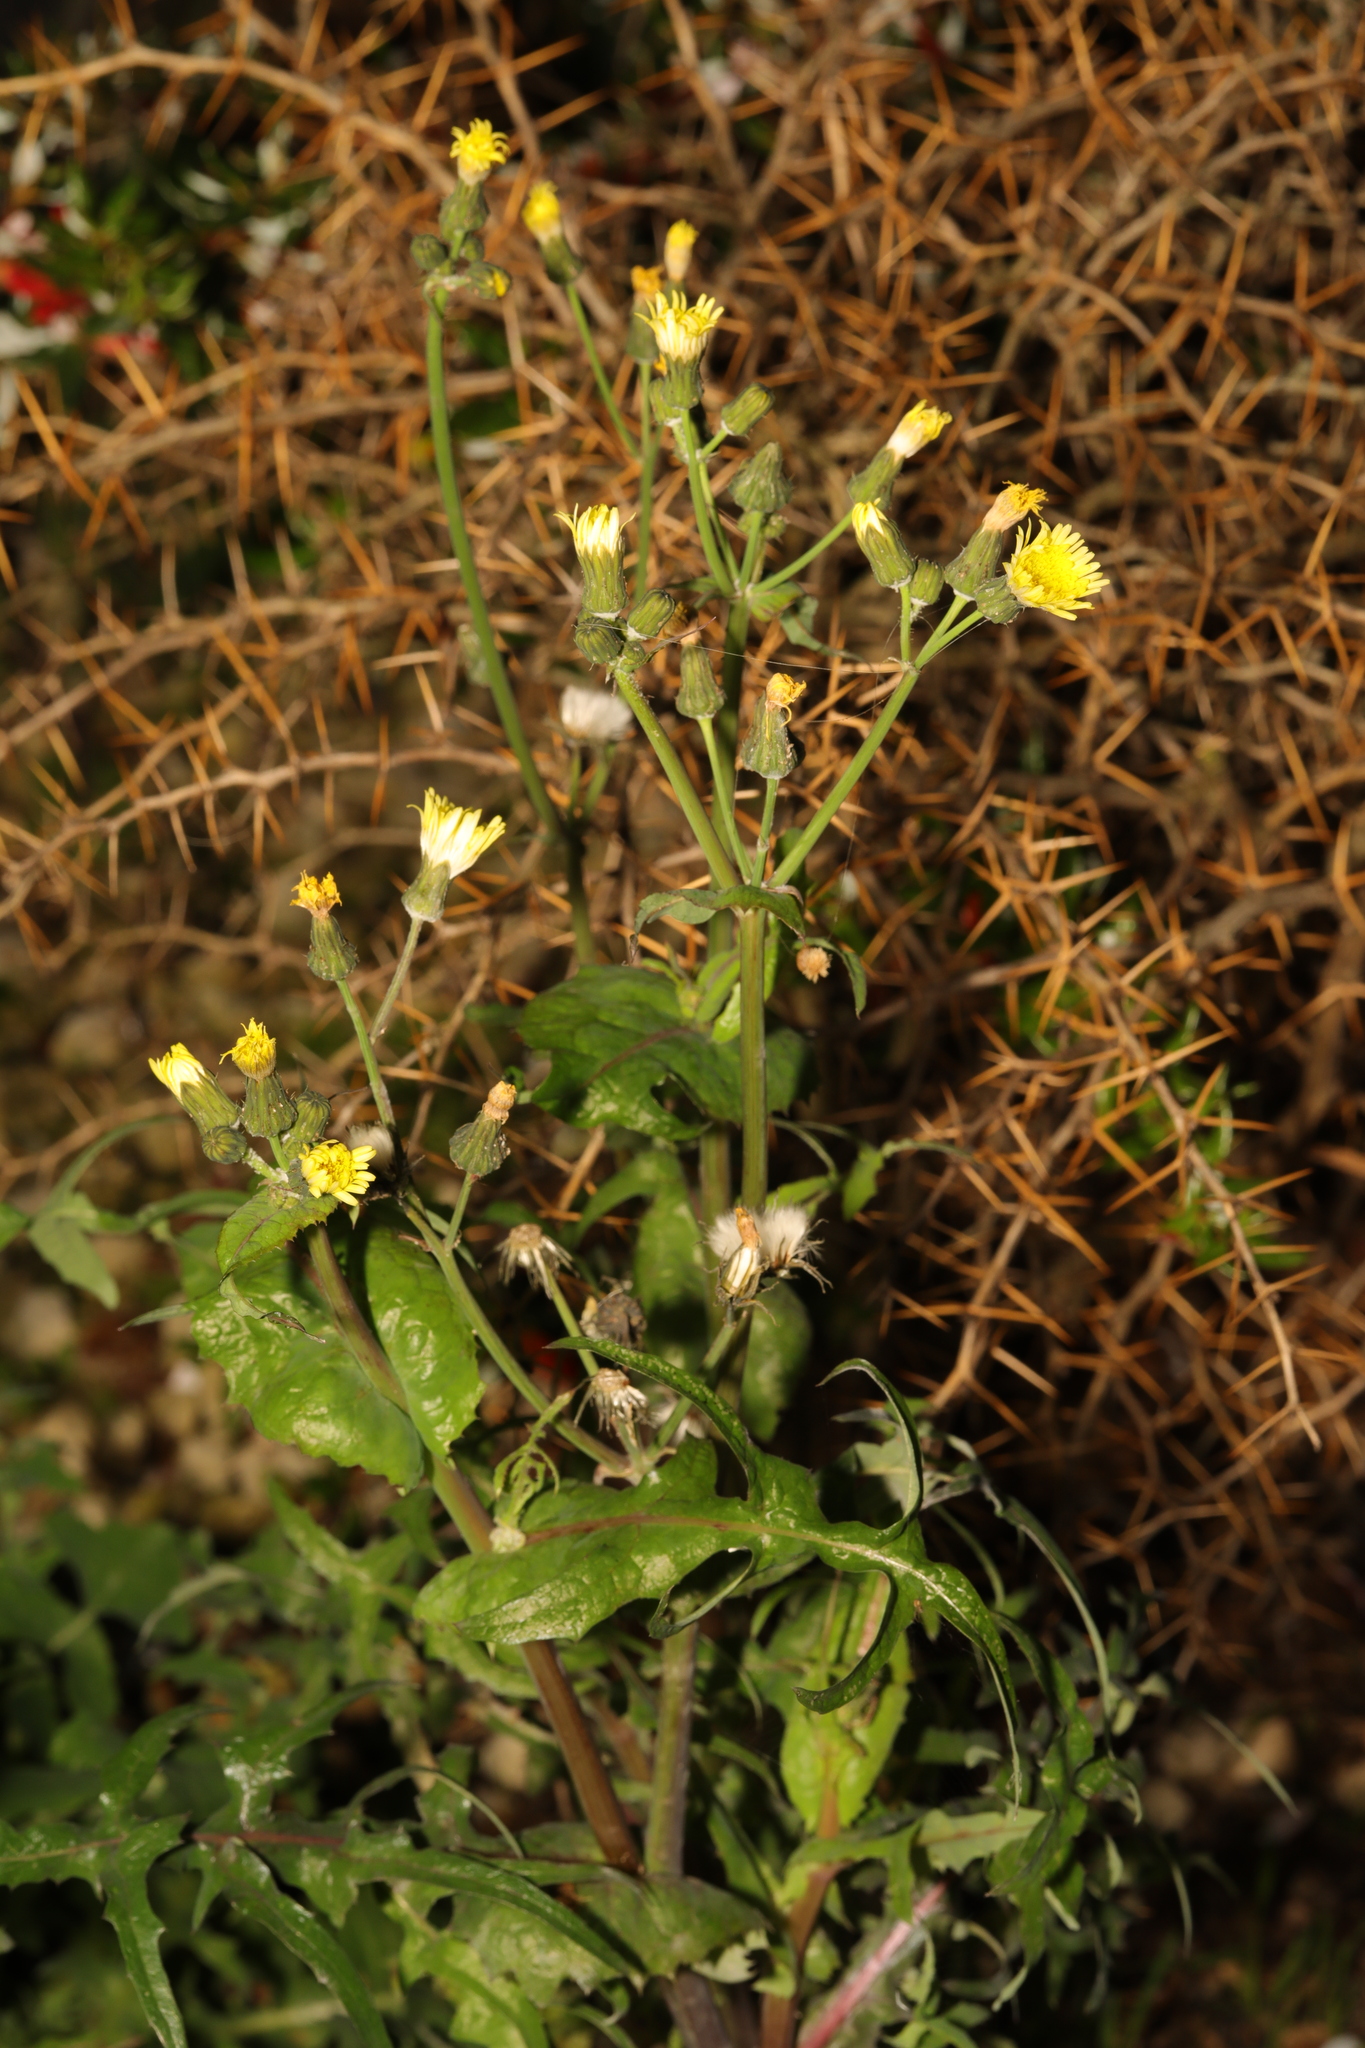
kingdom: Plantae
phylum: Tracheophyta
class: Magnoliopsida
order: Asterales
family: Asteraceae
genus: Sonchus
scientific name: Sonchus oleraceus
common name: Common sowthistle
